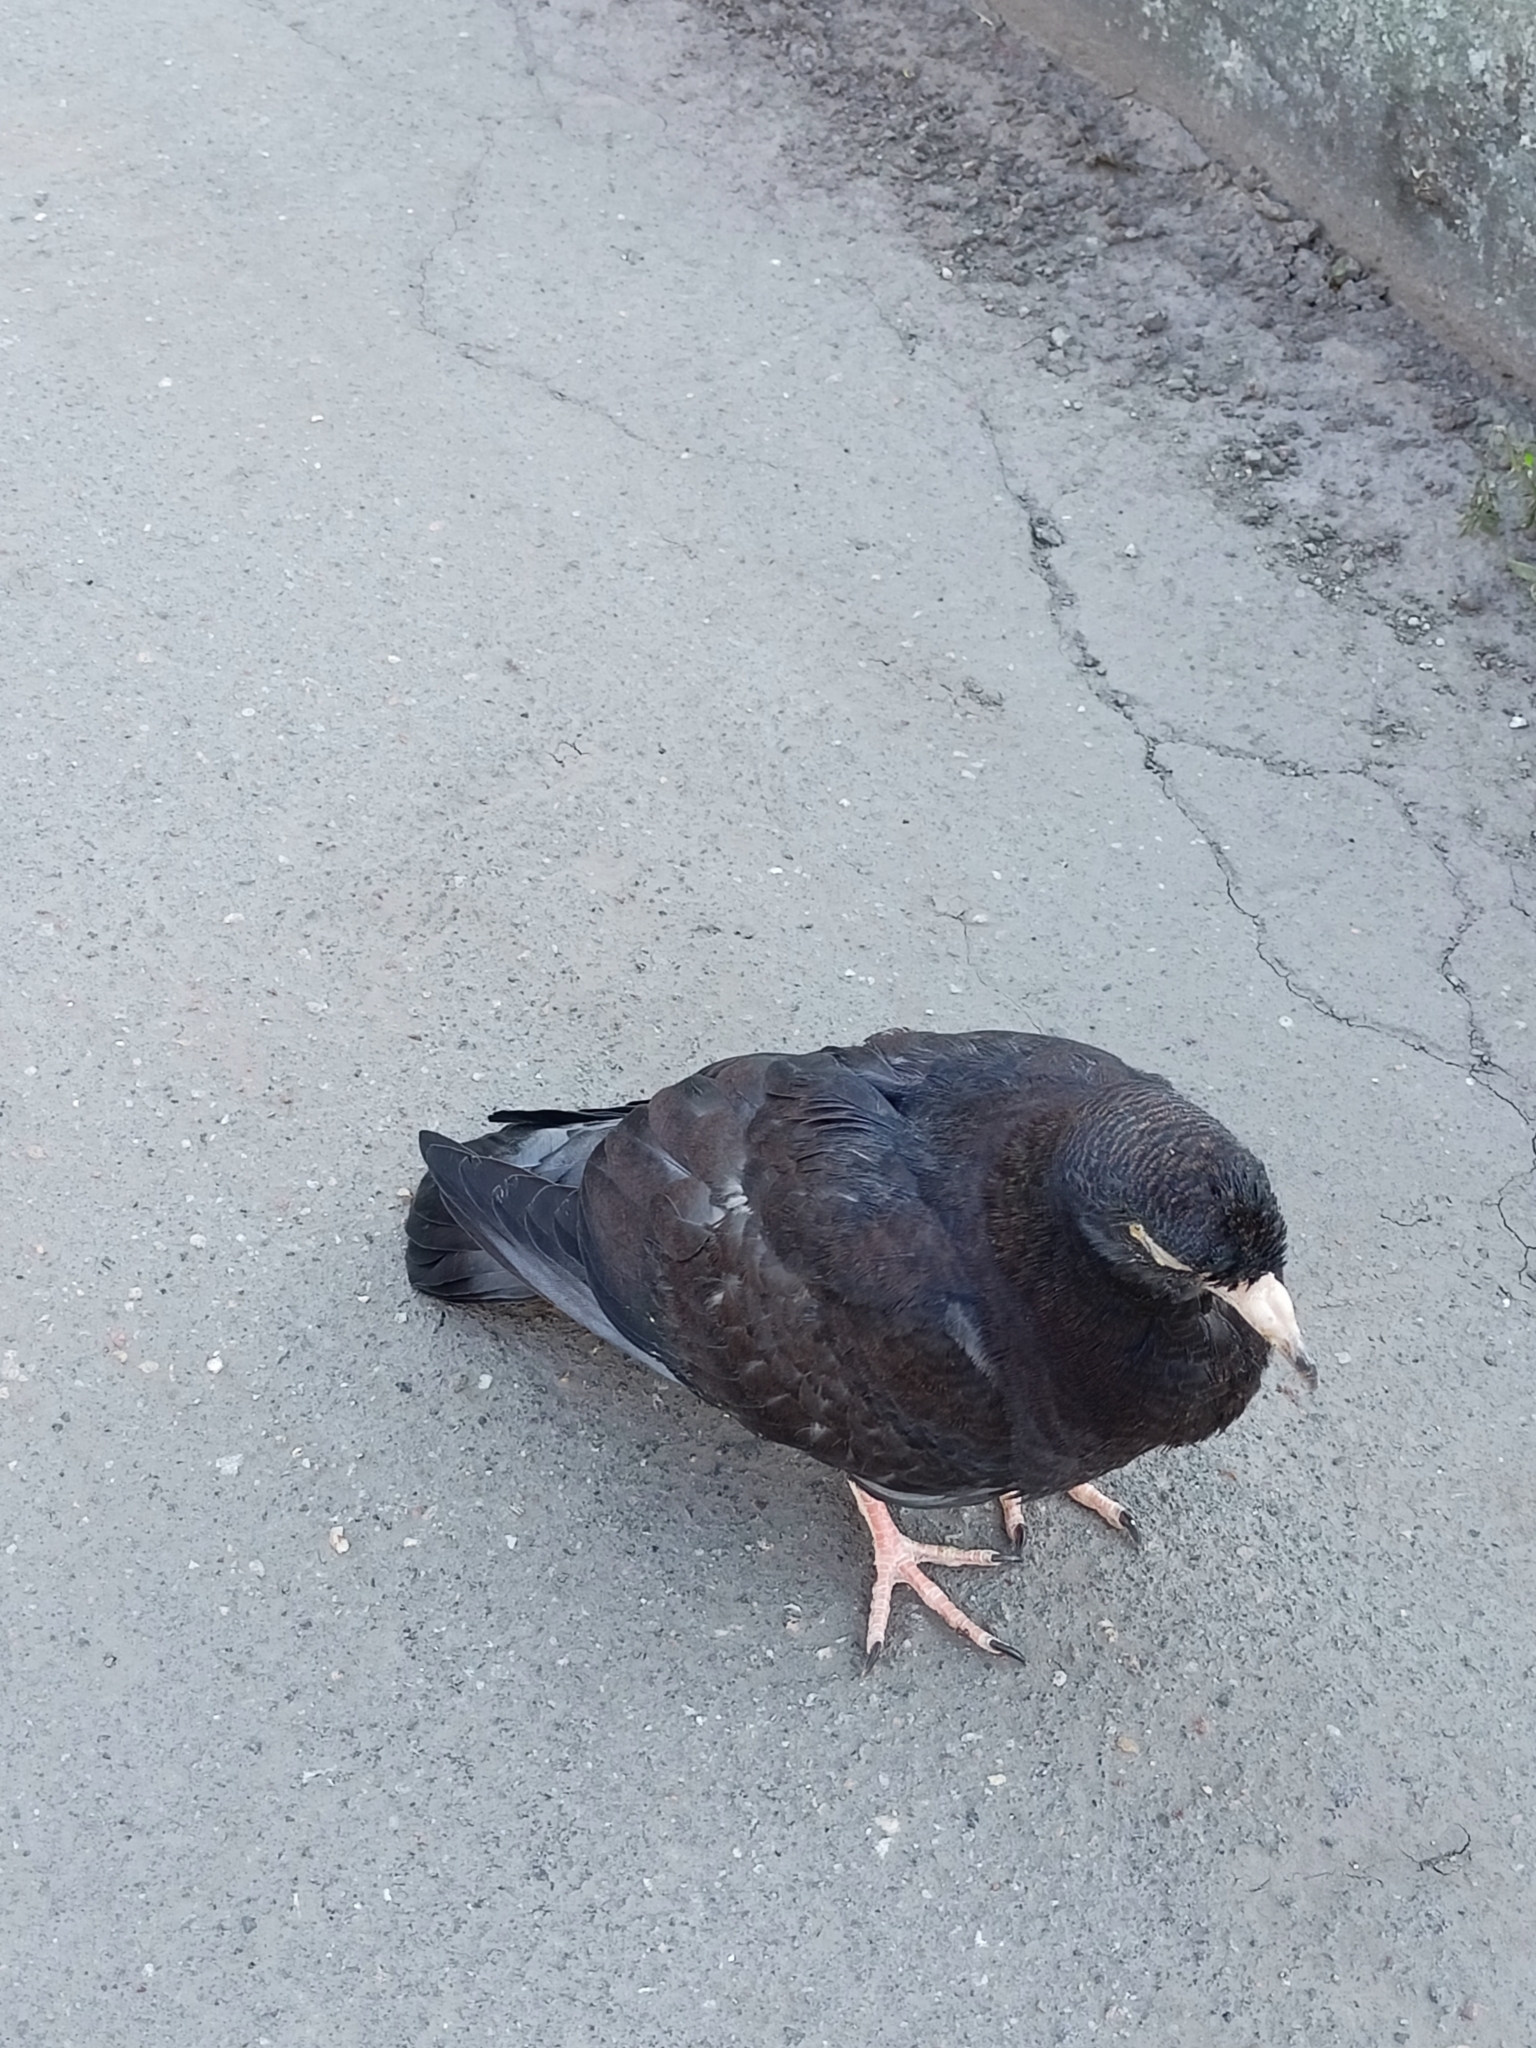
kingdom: Animalia
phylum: Chordata
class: Aves
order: Columbiformes
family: Columbidae
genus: Columba
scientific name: Columba livia
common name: Rock pigeon
